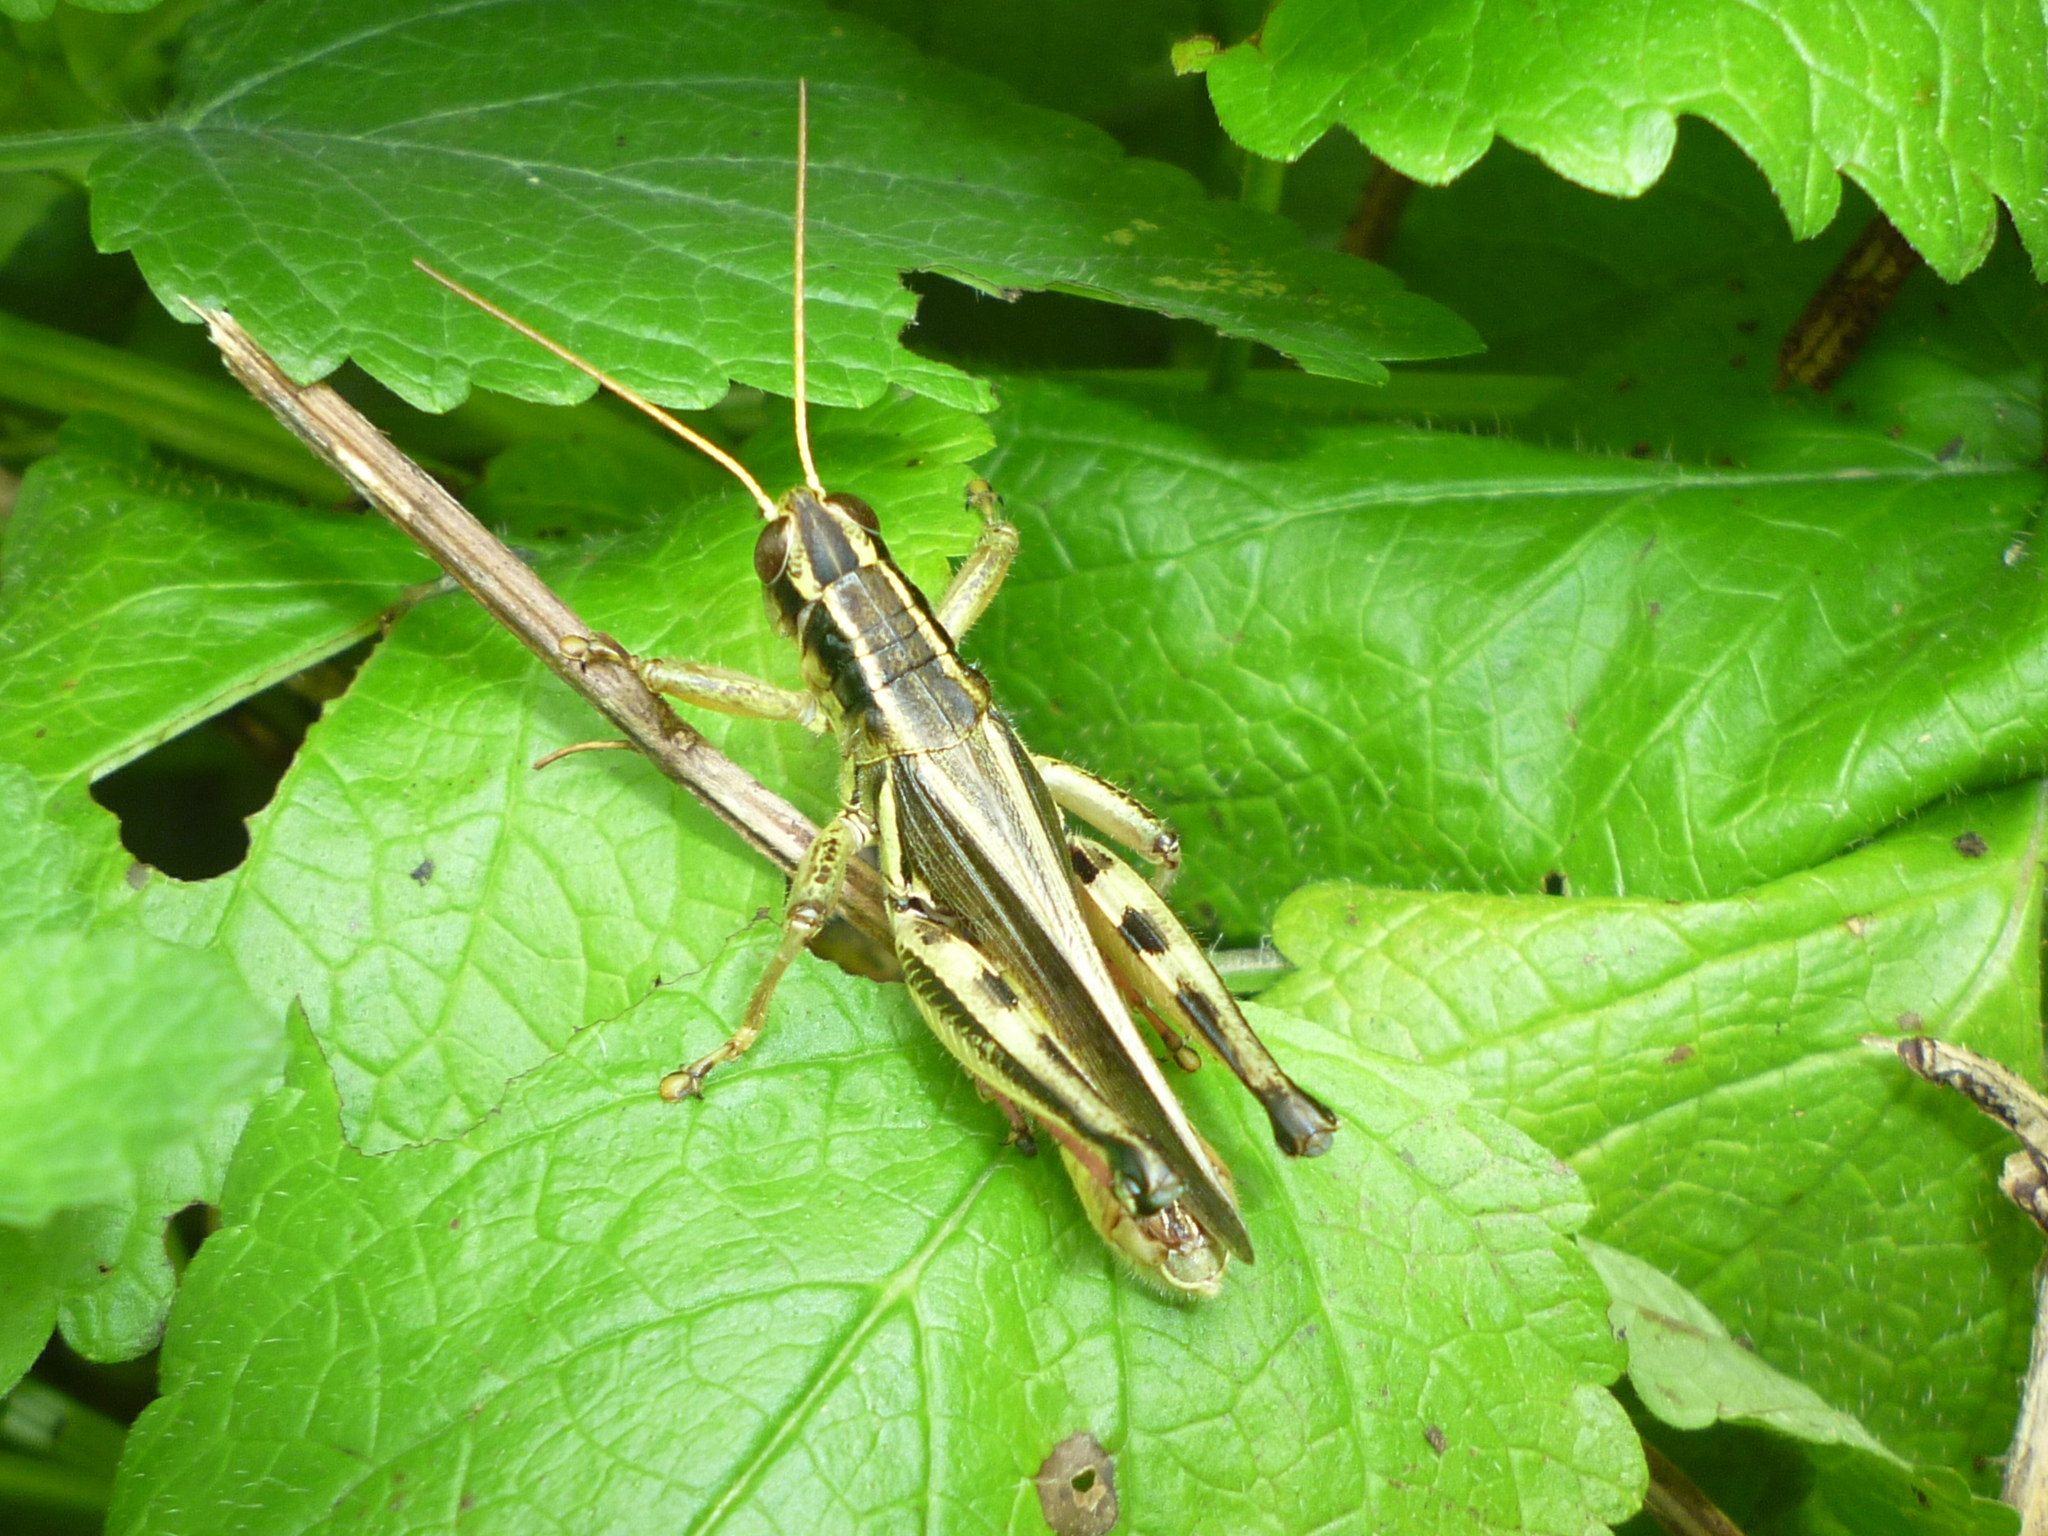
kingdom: Animalia
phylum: Arthropoda
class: Insecta
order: Orthoptera
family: Acrididae
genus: Melanoplus
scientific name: Melanoplus bivittatus
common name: Two-striped grasshopper
